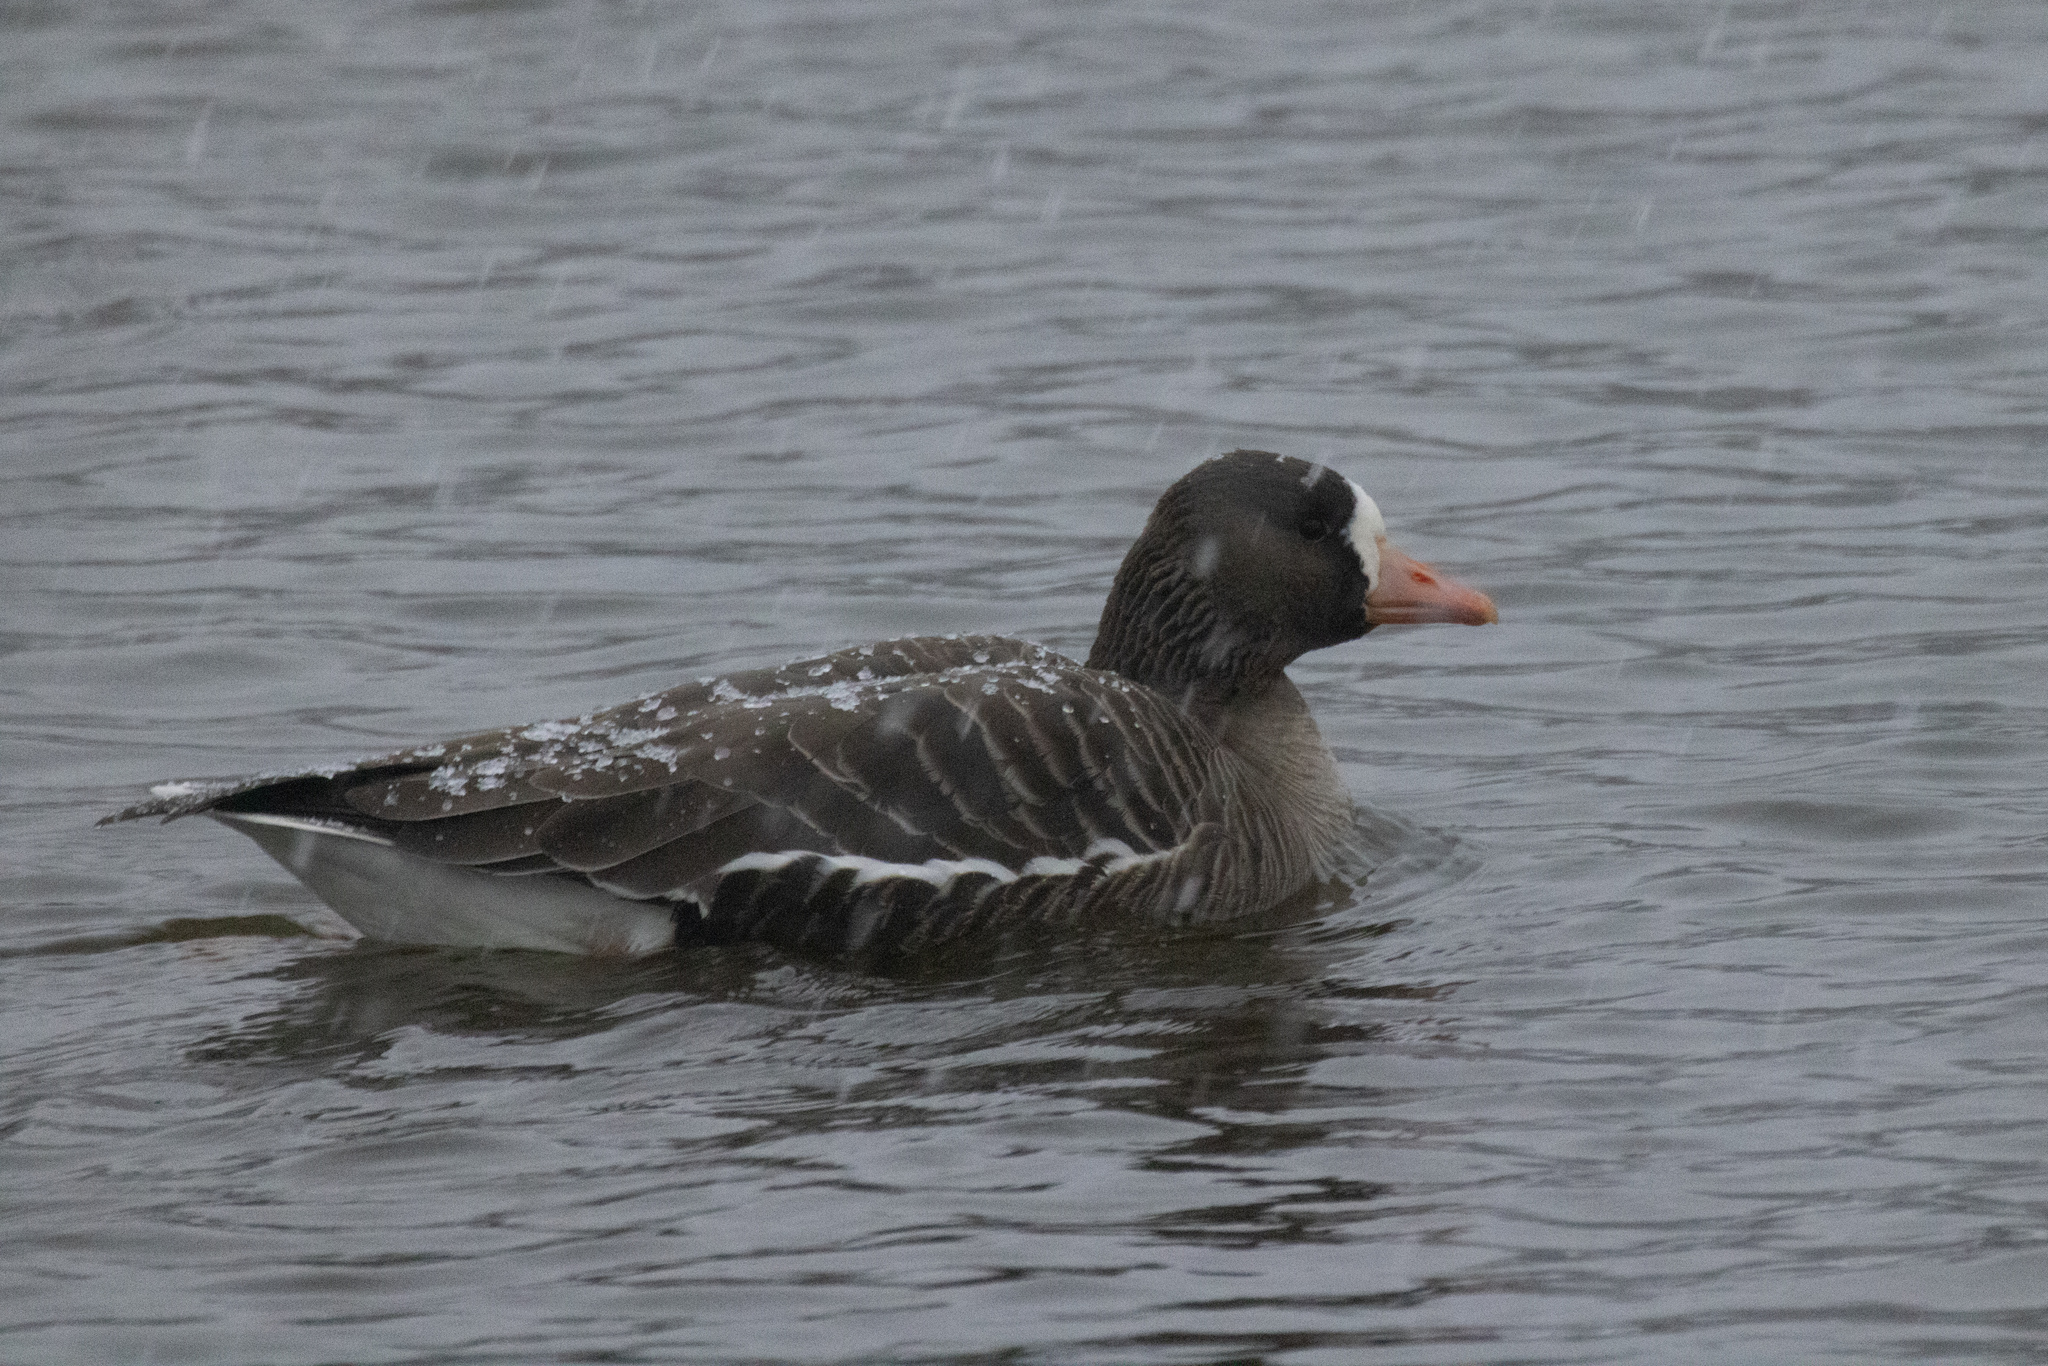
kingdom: Animalia
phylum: Chordata
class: Aves
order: Anseriformes
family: Anatidae
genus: Anser
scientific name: Anser albifrons
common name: Greater white-fronted goose
